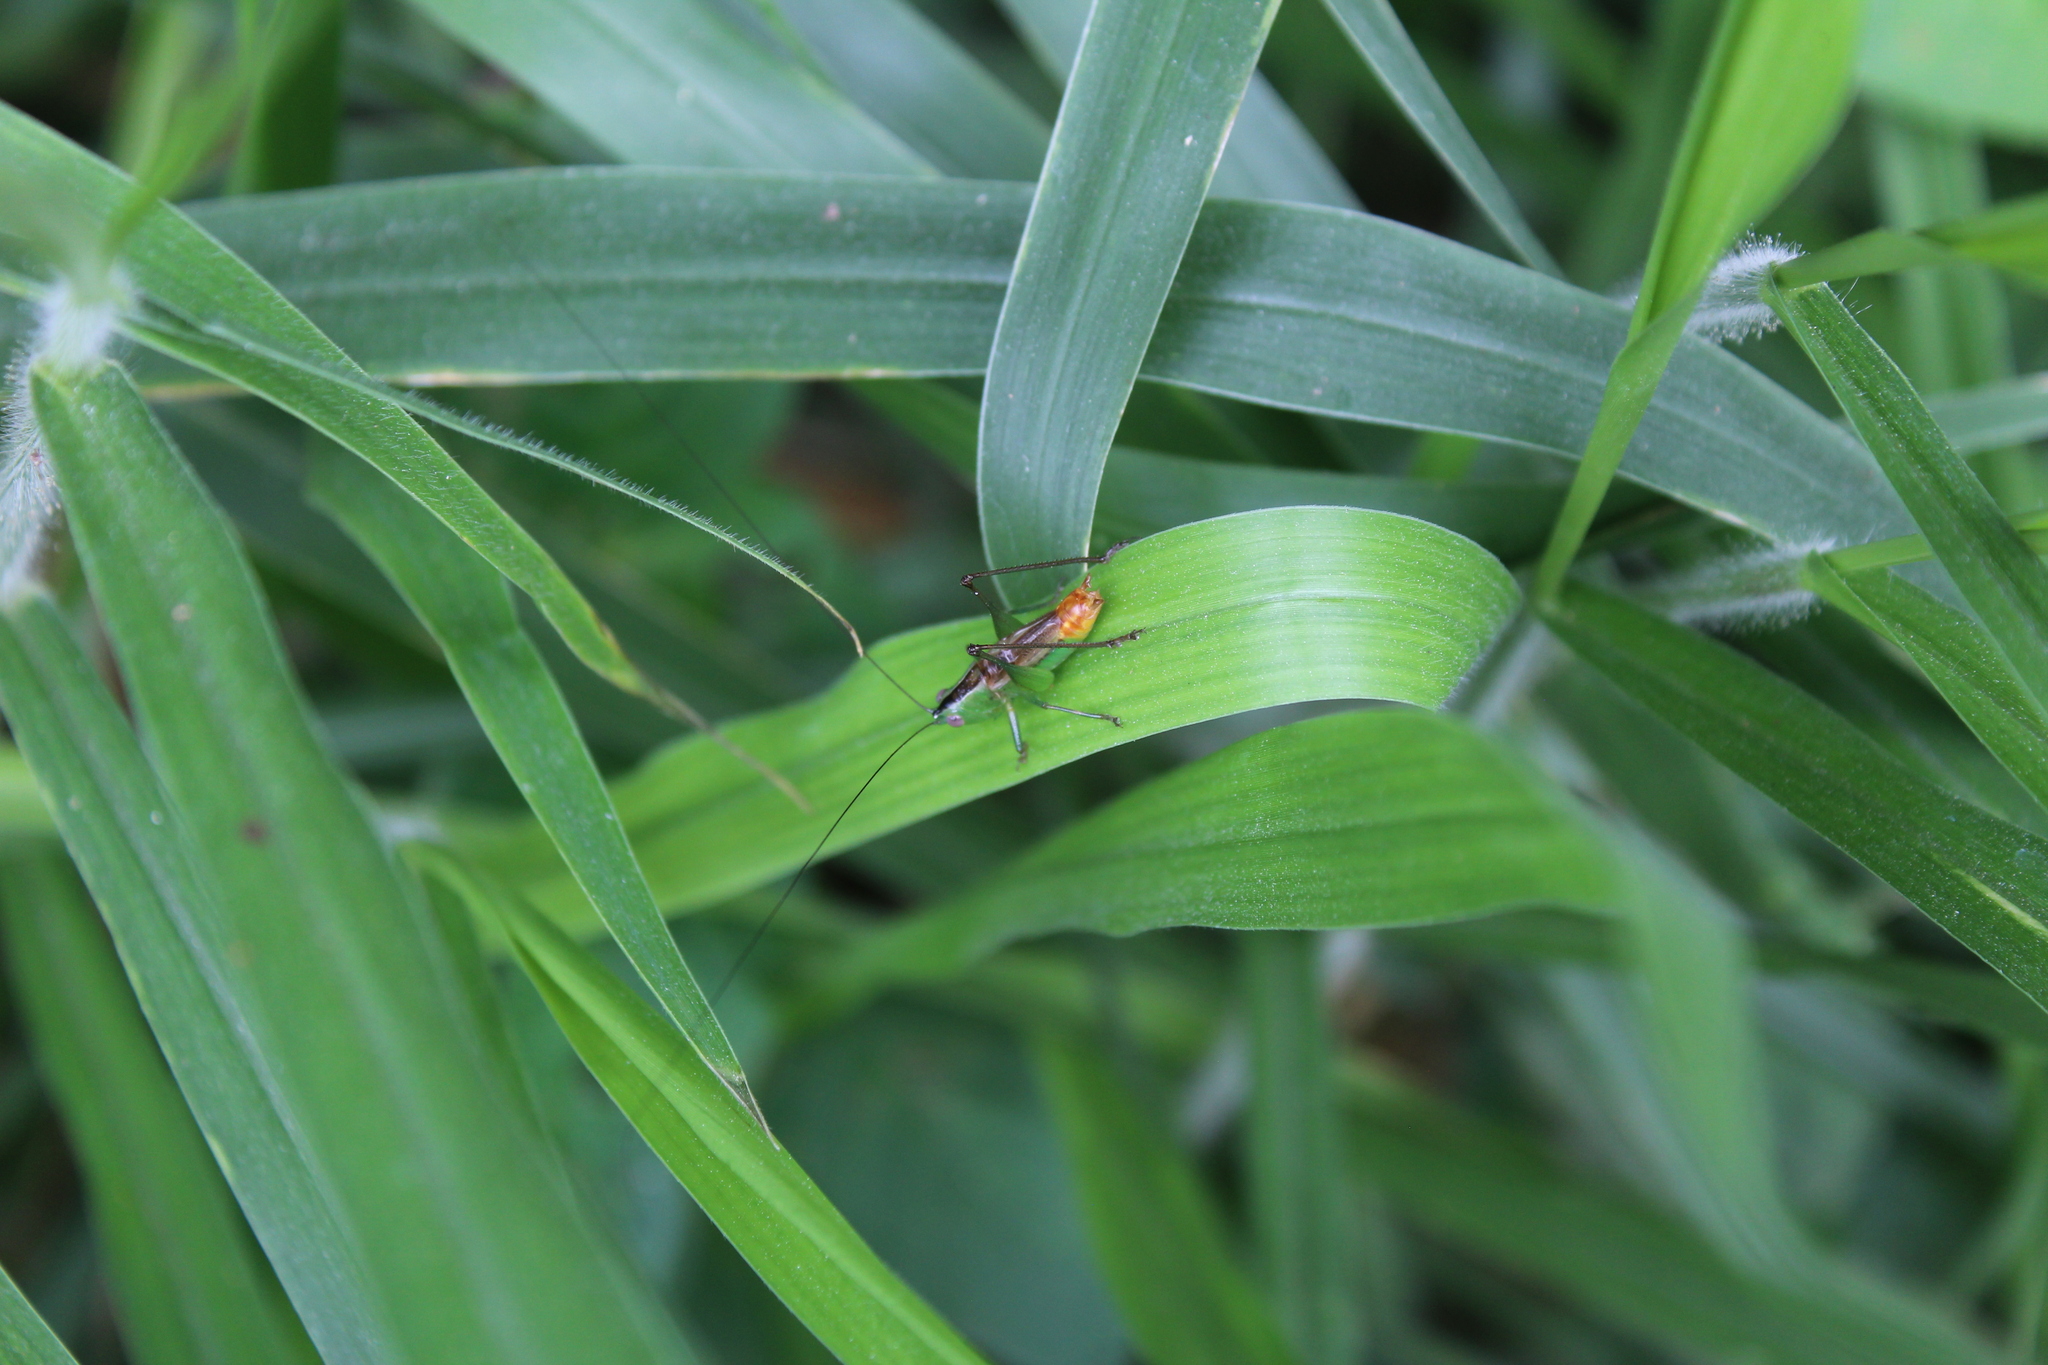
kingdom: Animalia
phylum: Arthropoda
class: Insecta
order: Orthoptera
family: Tettigoniidae
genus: Conocephalus
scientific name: Conocephalus ictus
